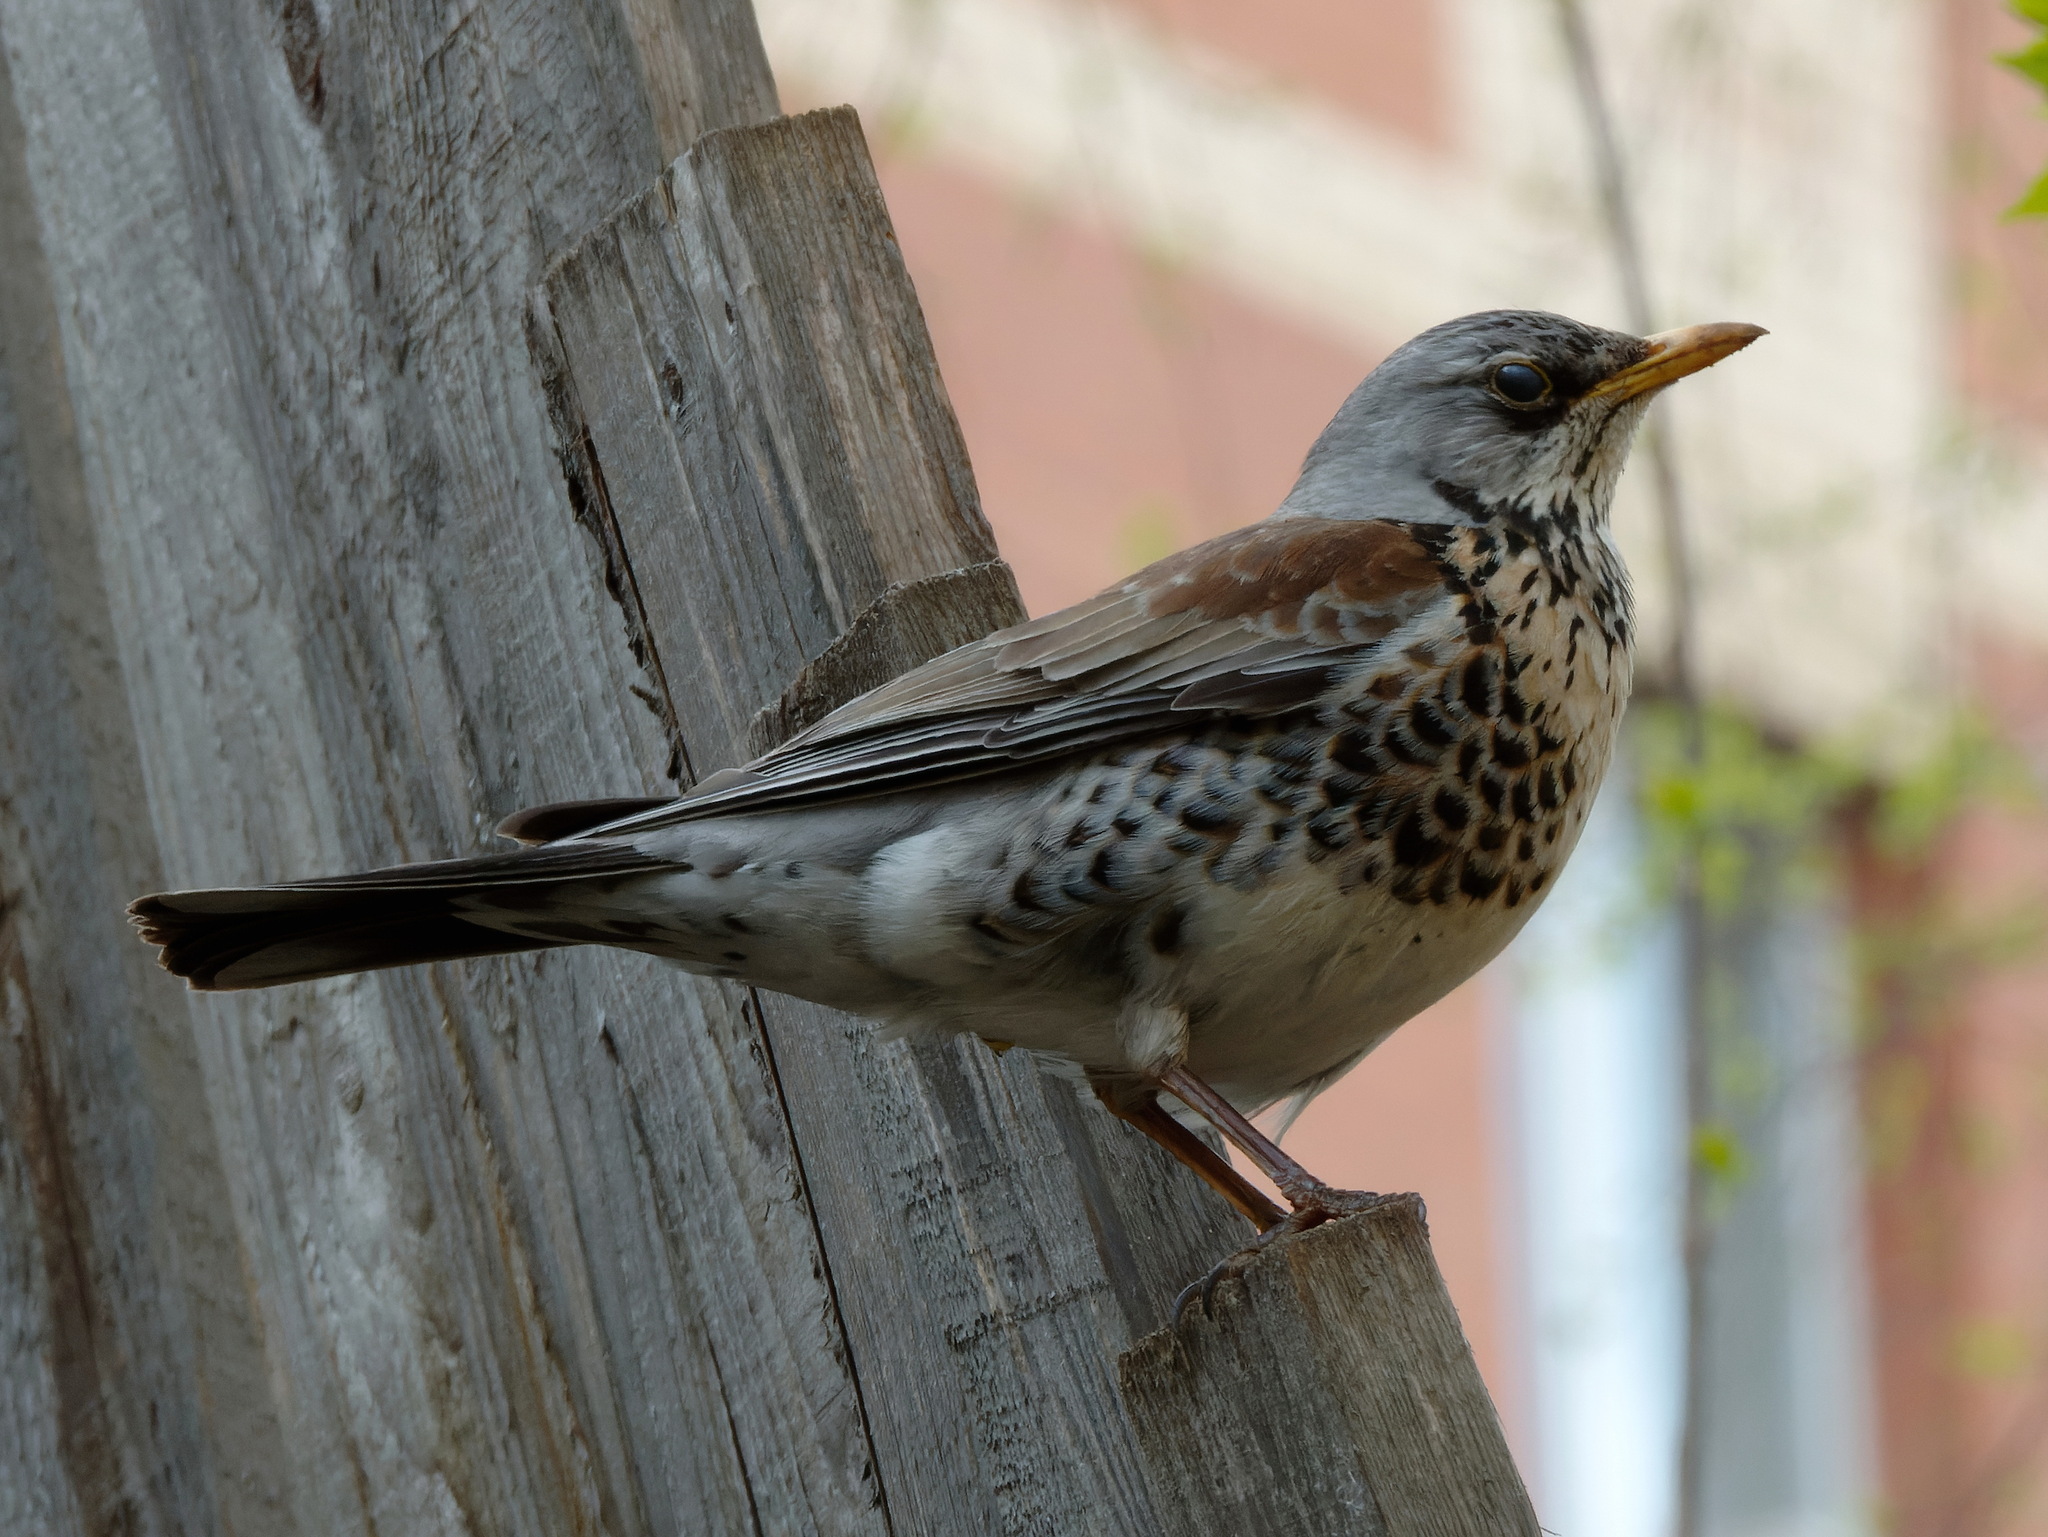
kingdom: Animalia
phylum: Chordata
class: Aves
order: Passeriformes
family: Turdidae
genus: Turdus
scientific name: Turdus pilaris
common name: Fieldfare
